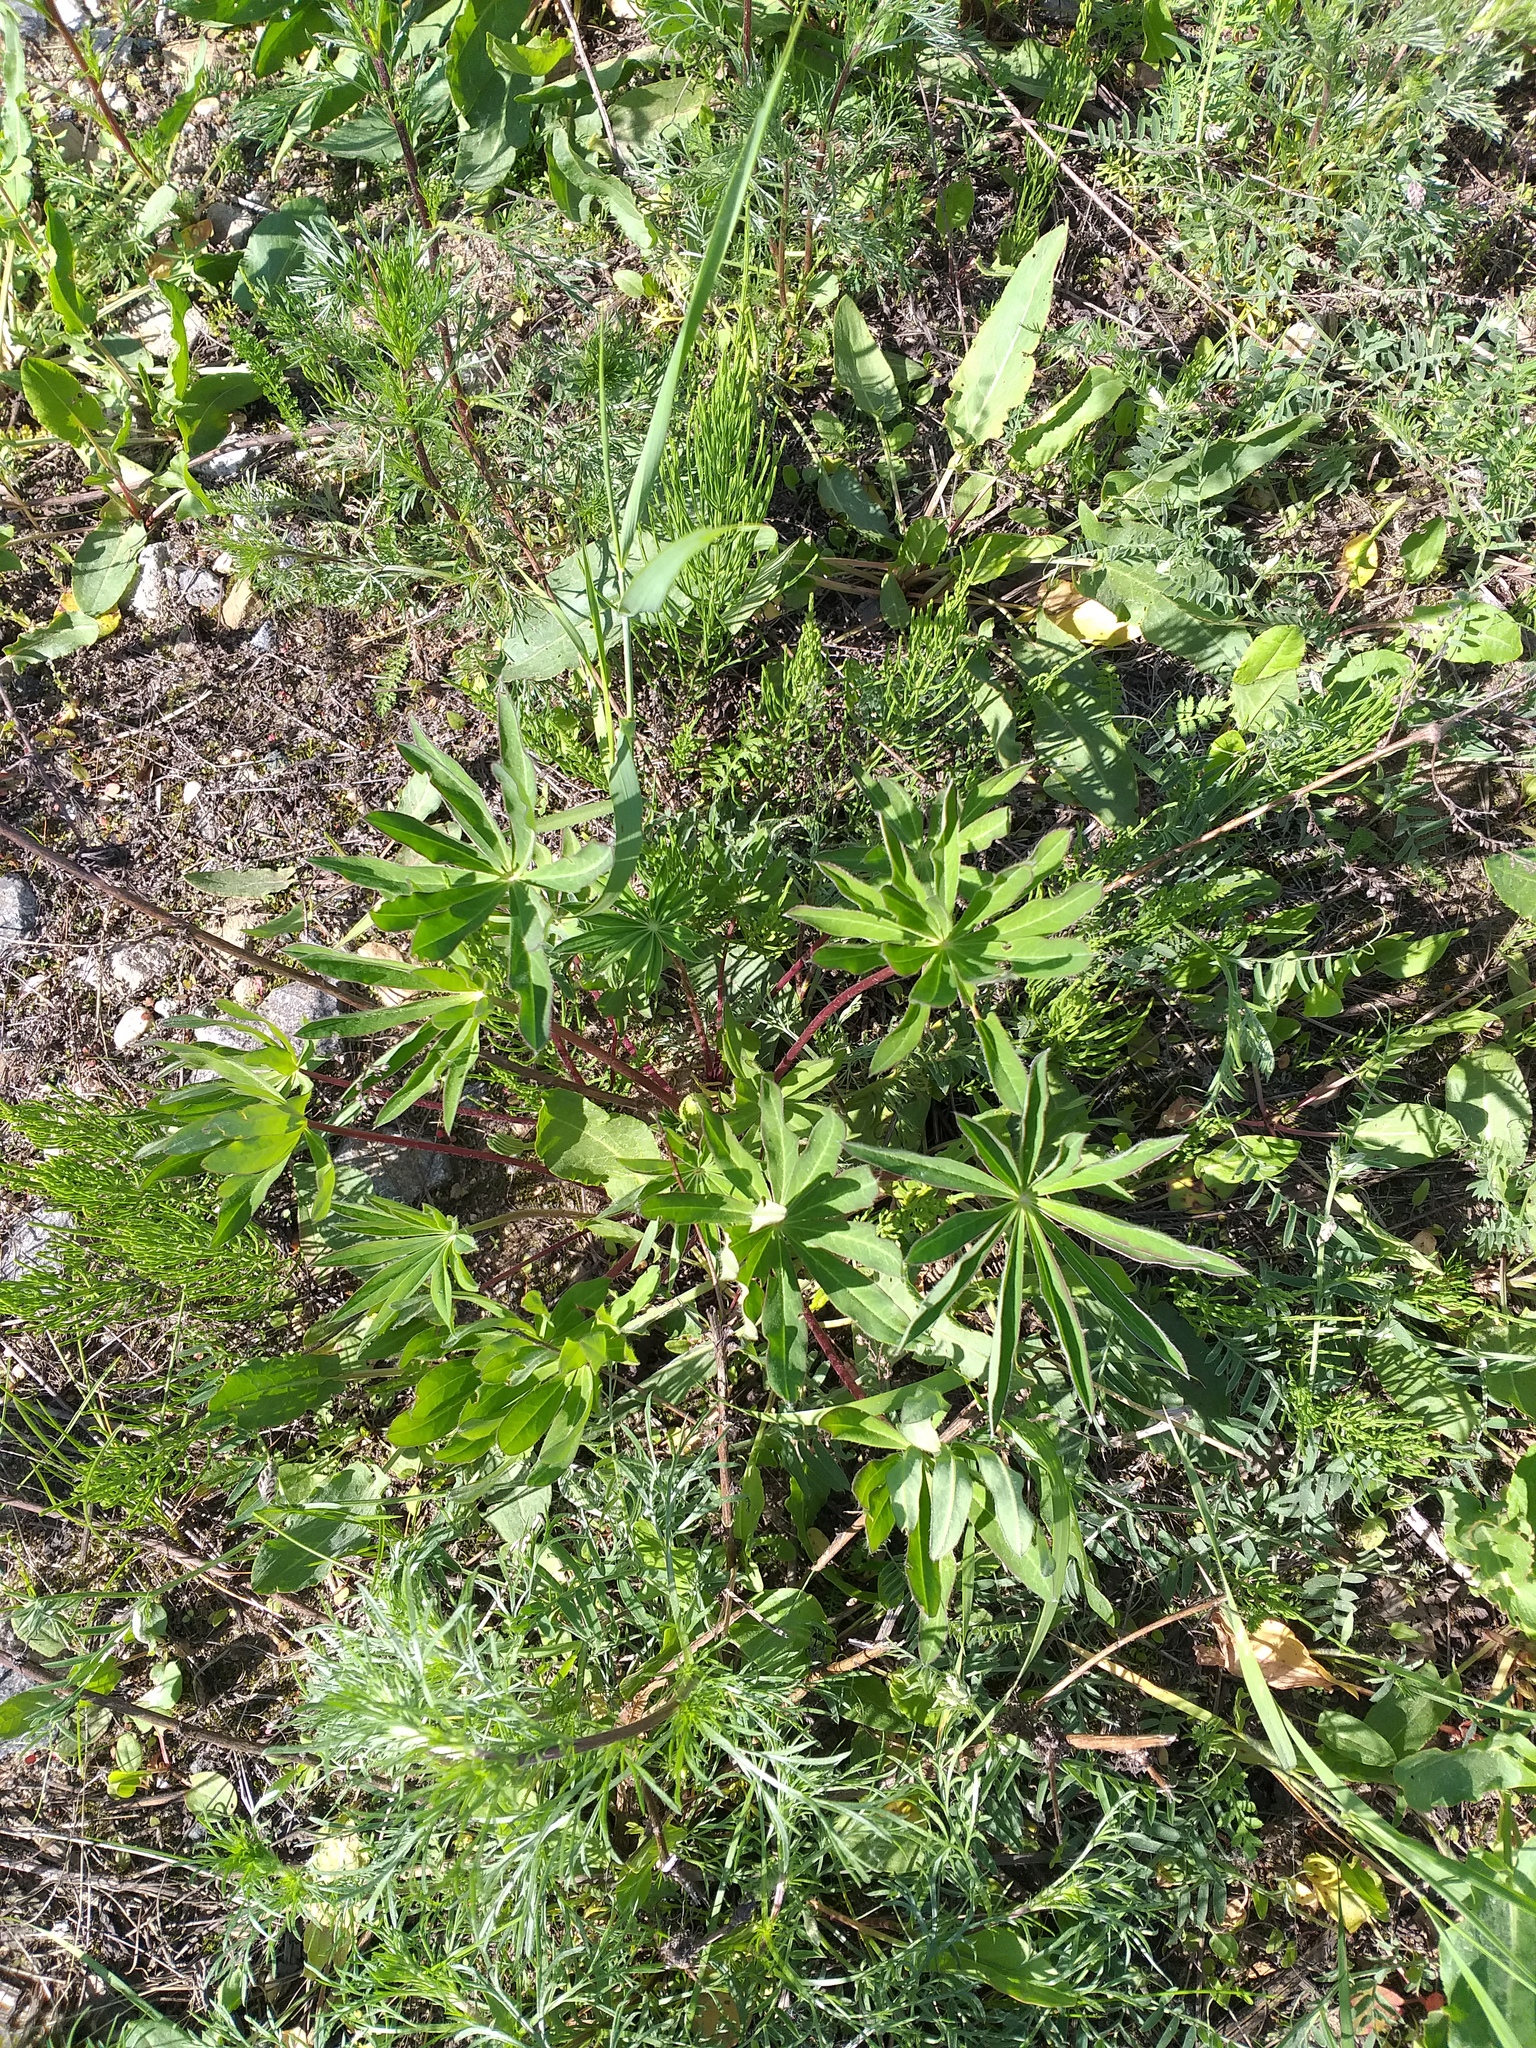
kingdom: Plantae
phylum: Tracheophyta
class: Magnoliopsida
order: Fabales
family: Fabaceae
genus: Lupinus
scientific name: Lupinus polyphyllus
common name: Garden lupin
